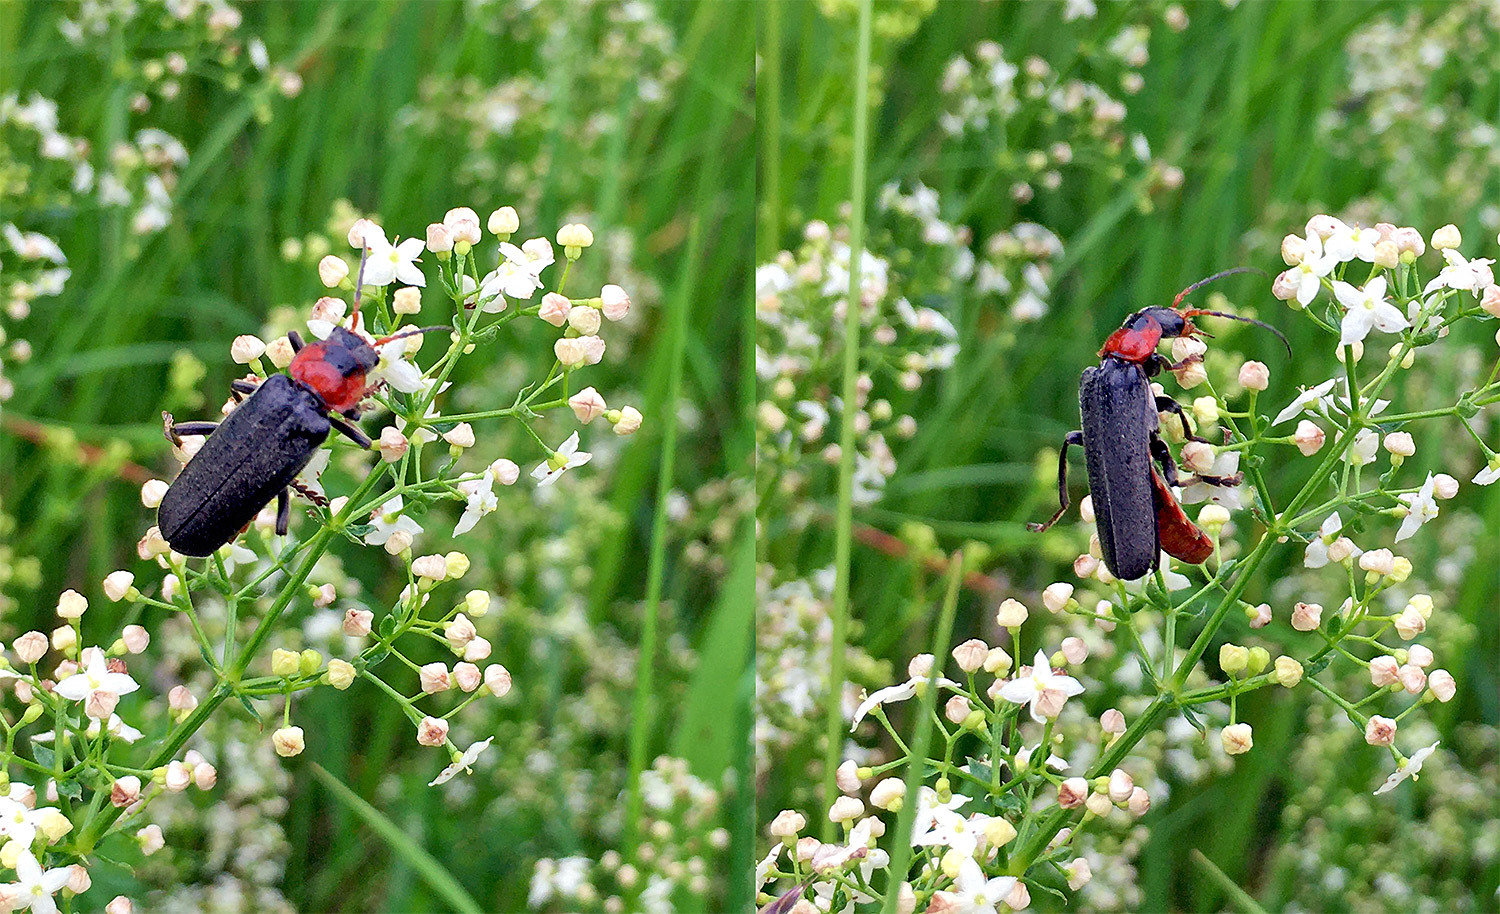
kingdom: Animalia
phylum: Arthropoda
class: Insecta
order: Coleoptera
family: Cantharidae
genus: Cantharis
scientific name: Cantharis fusca
